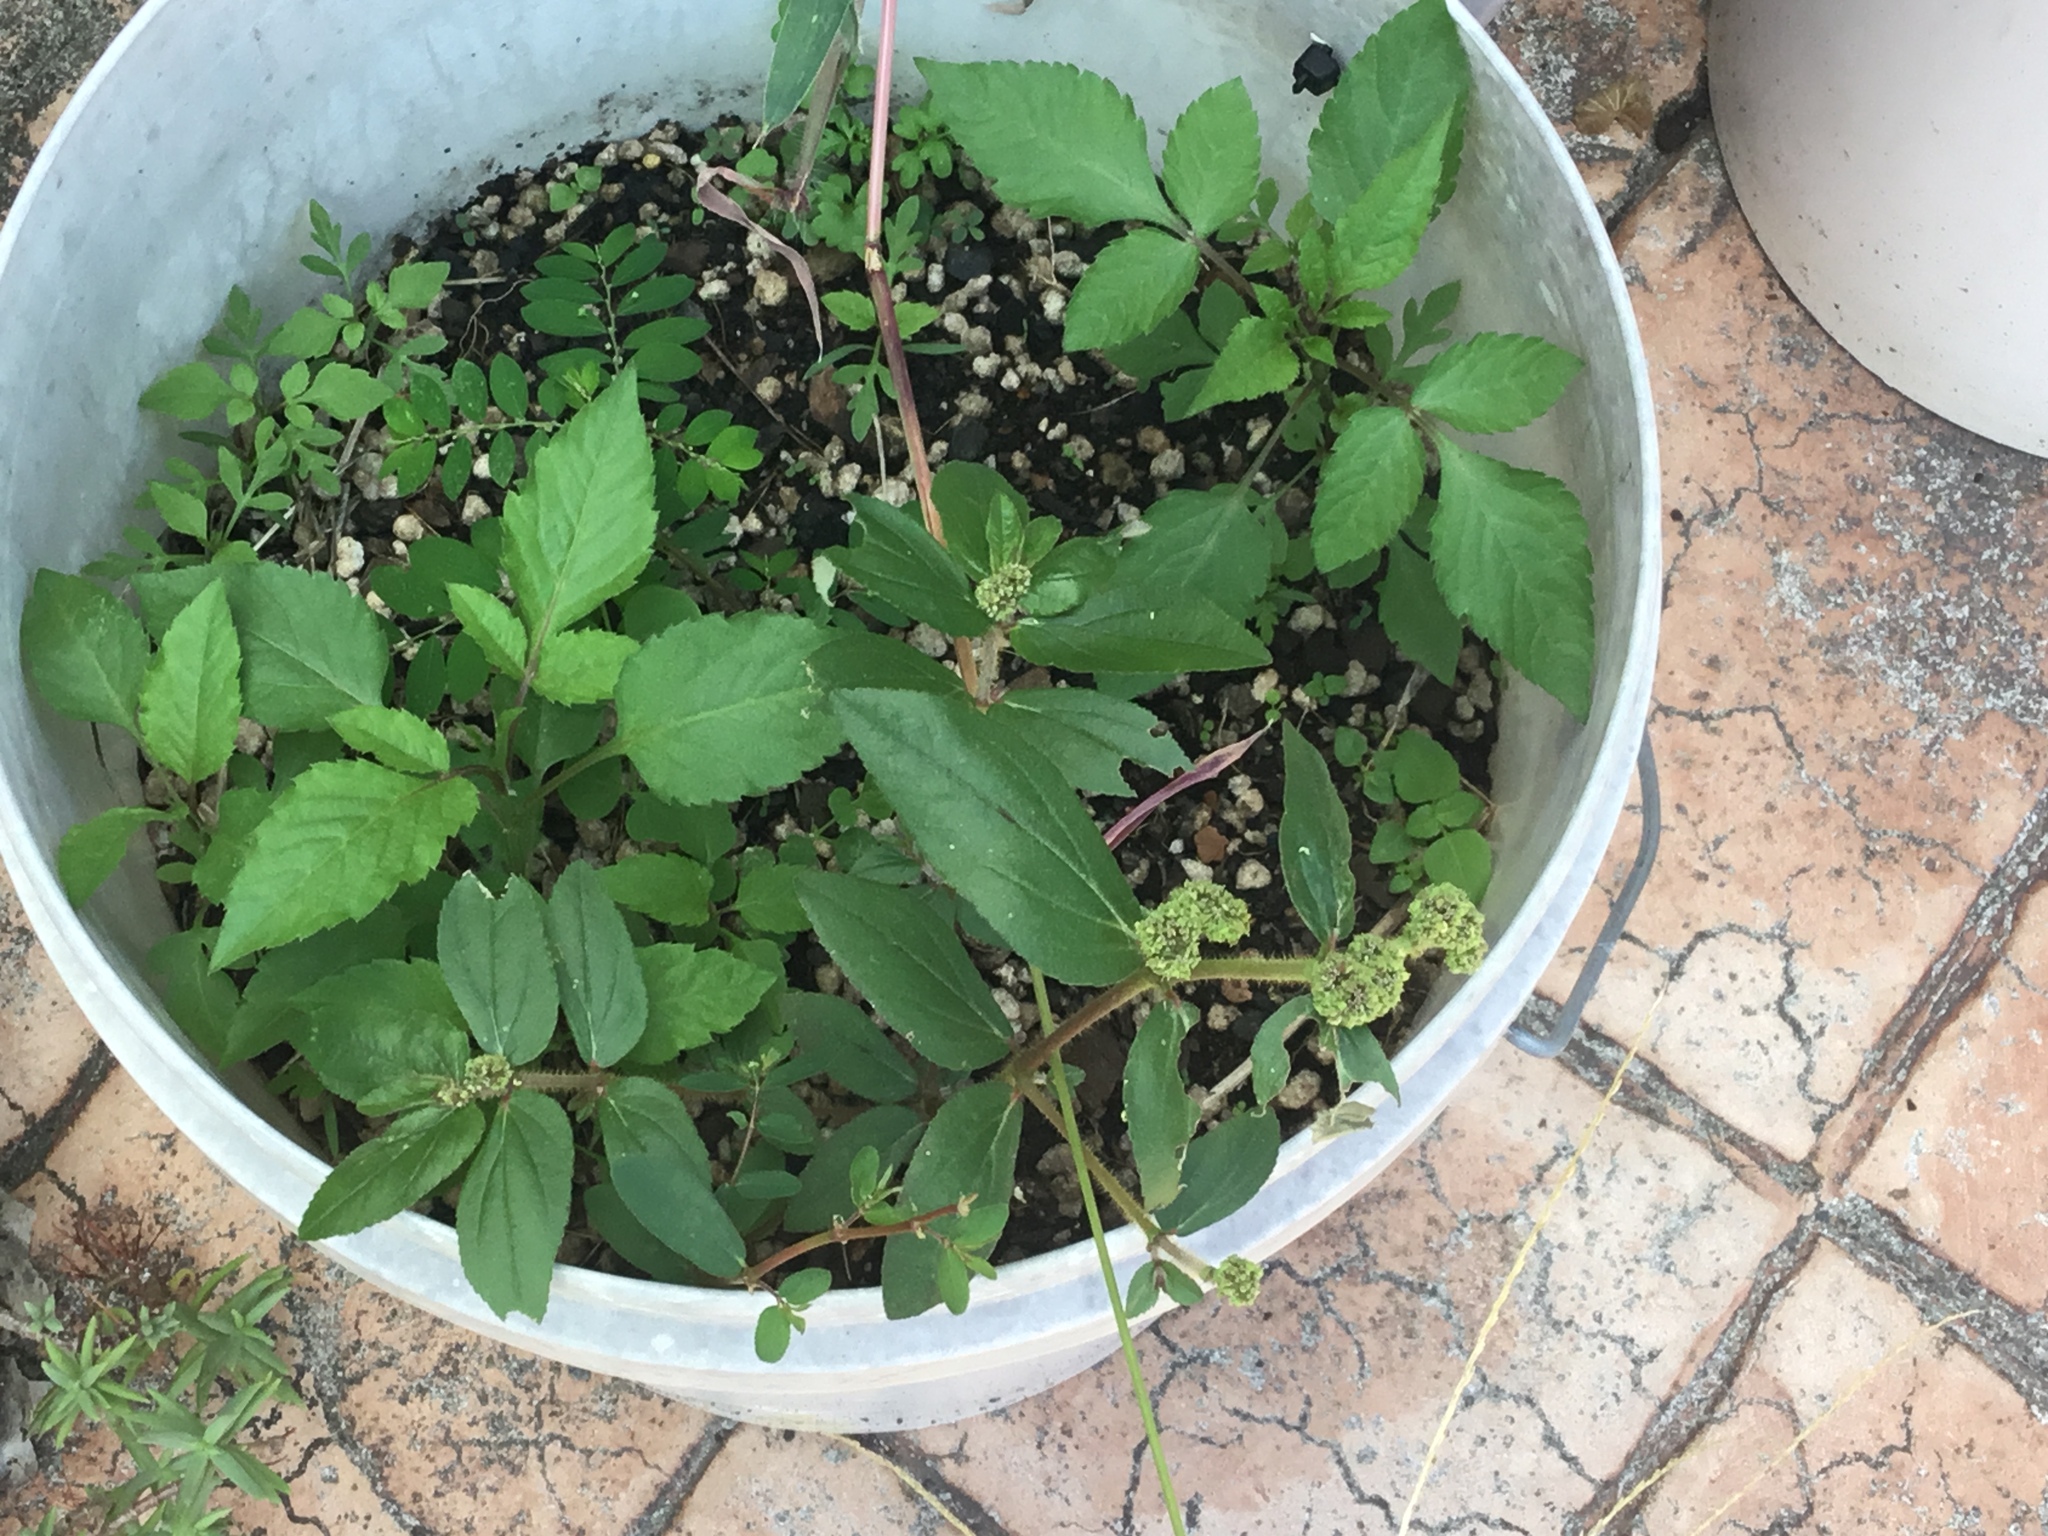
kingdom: Plantae
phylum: Tracheophyta
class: Magnoliopsida
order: Malpighiales
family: Euphorbiaceae
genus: Euphorbia
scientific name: Euphorbia hirta
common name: Pillpod sandmat
